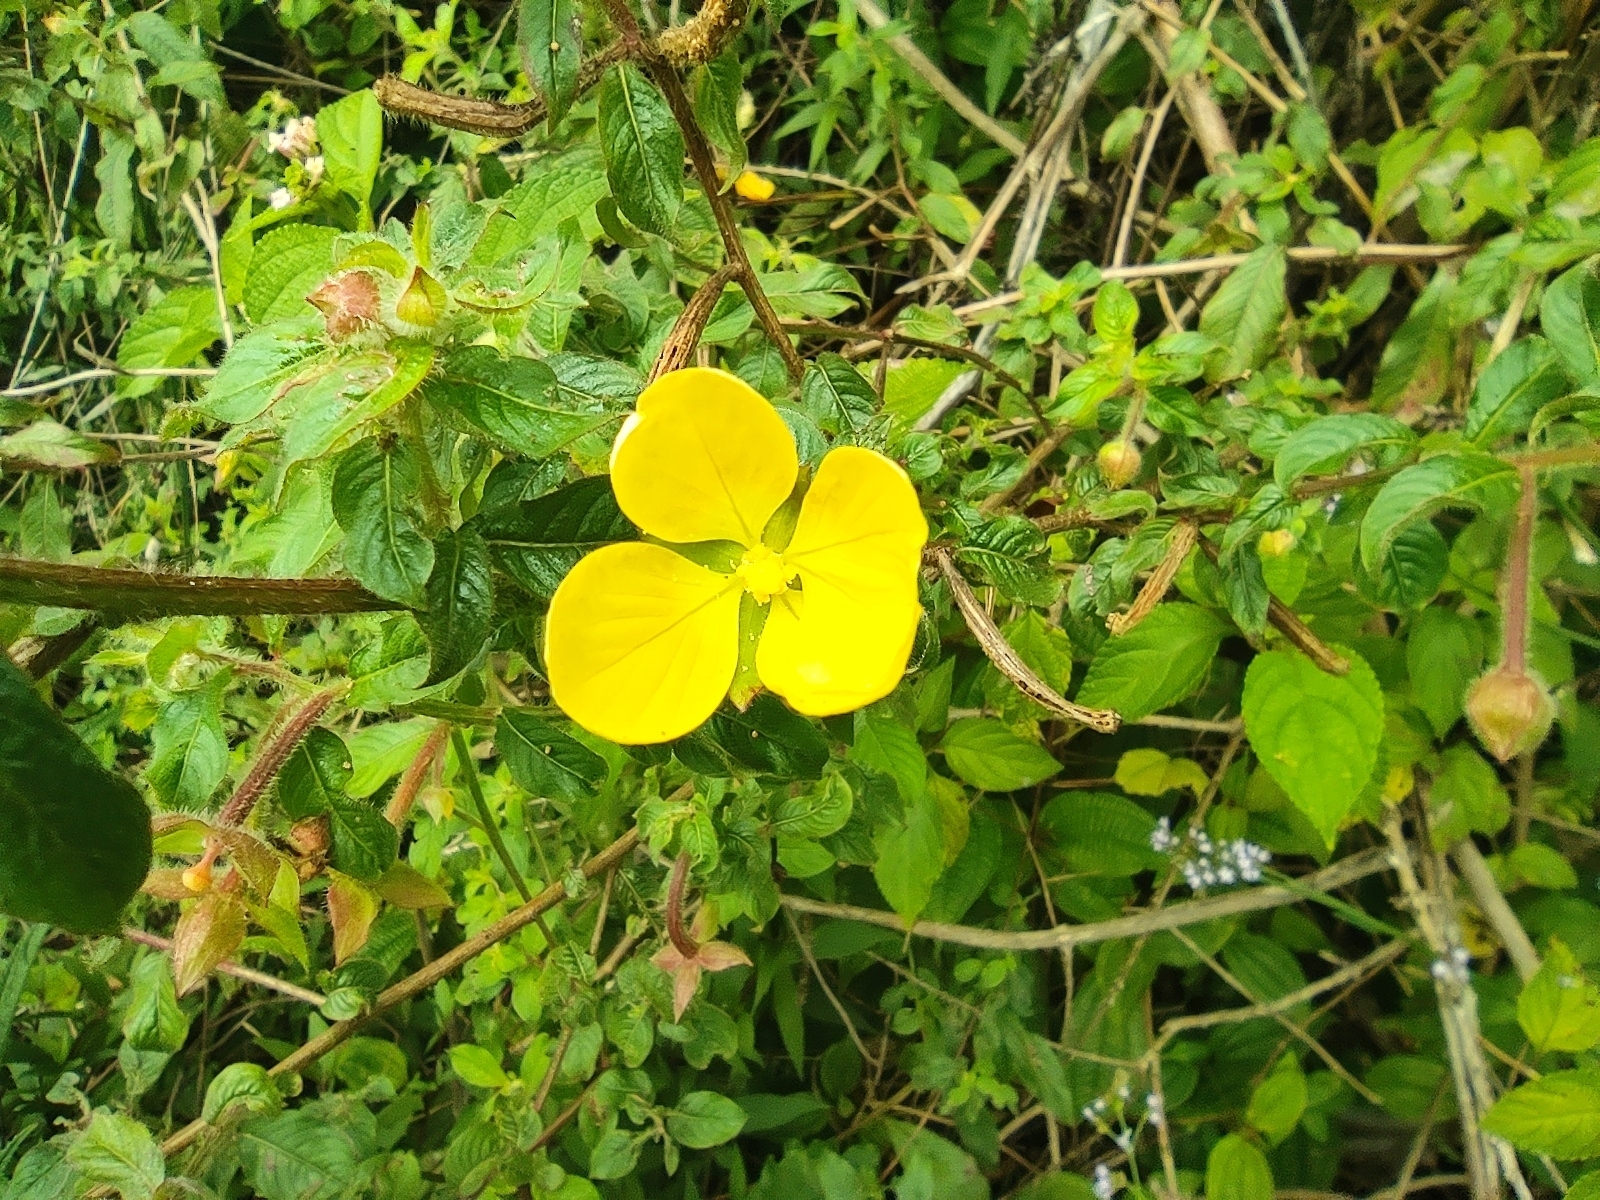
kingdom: Plantae
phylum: Tracheophyta
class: Magnoliopsida
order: Myrtales
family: Onagraceae
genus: Ludwigia
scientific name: Ludwigia octovalvis
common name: Water-primrose
